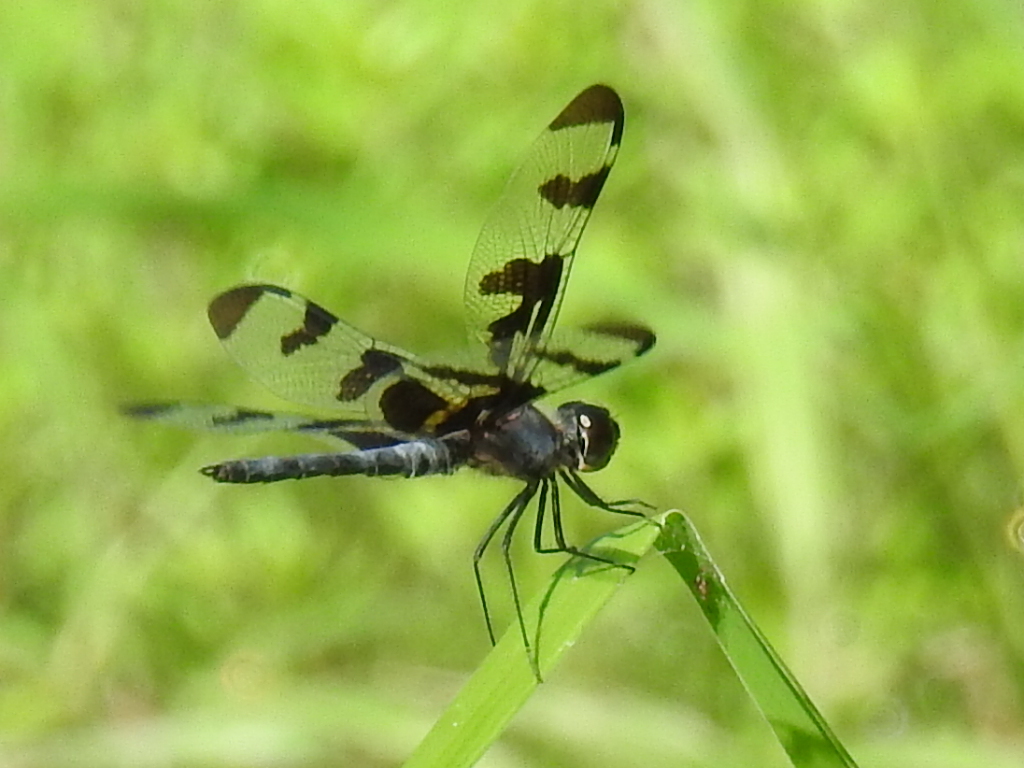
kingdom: Animalia
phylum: Arthropoda
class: Insecta
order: Odonata
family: Libellulidae
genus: Celithemis
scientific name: Celithemis fasciata
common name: Banded pennant
